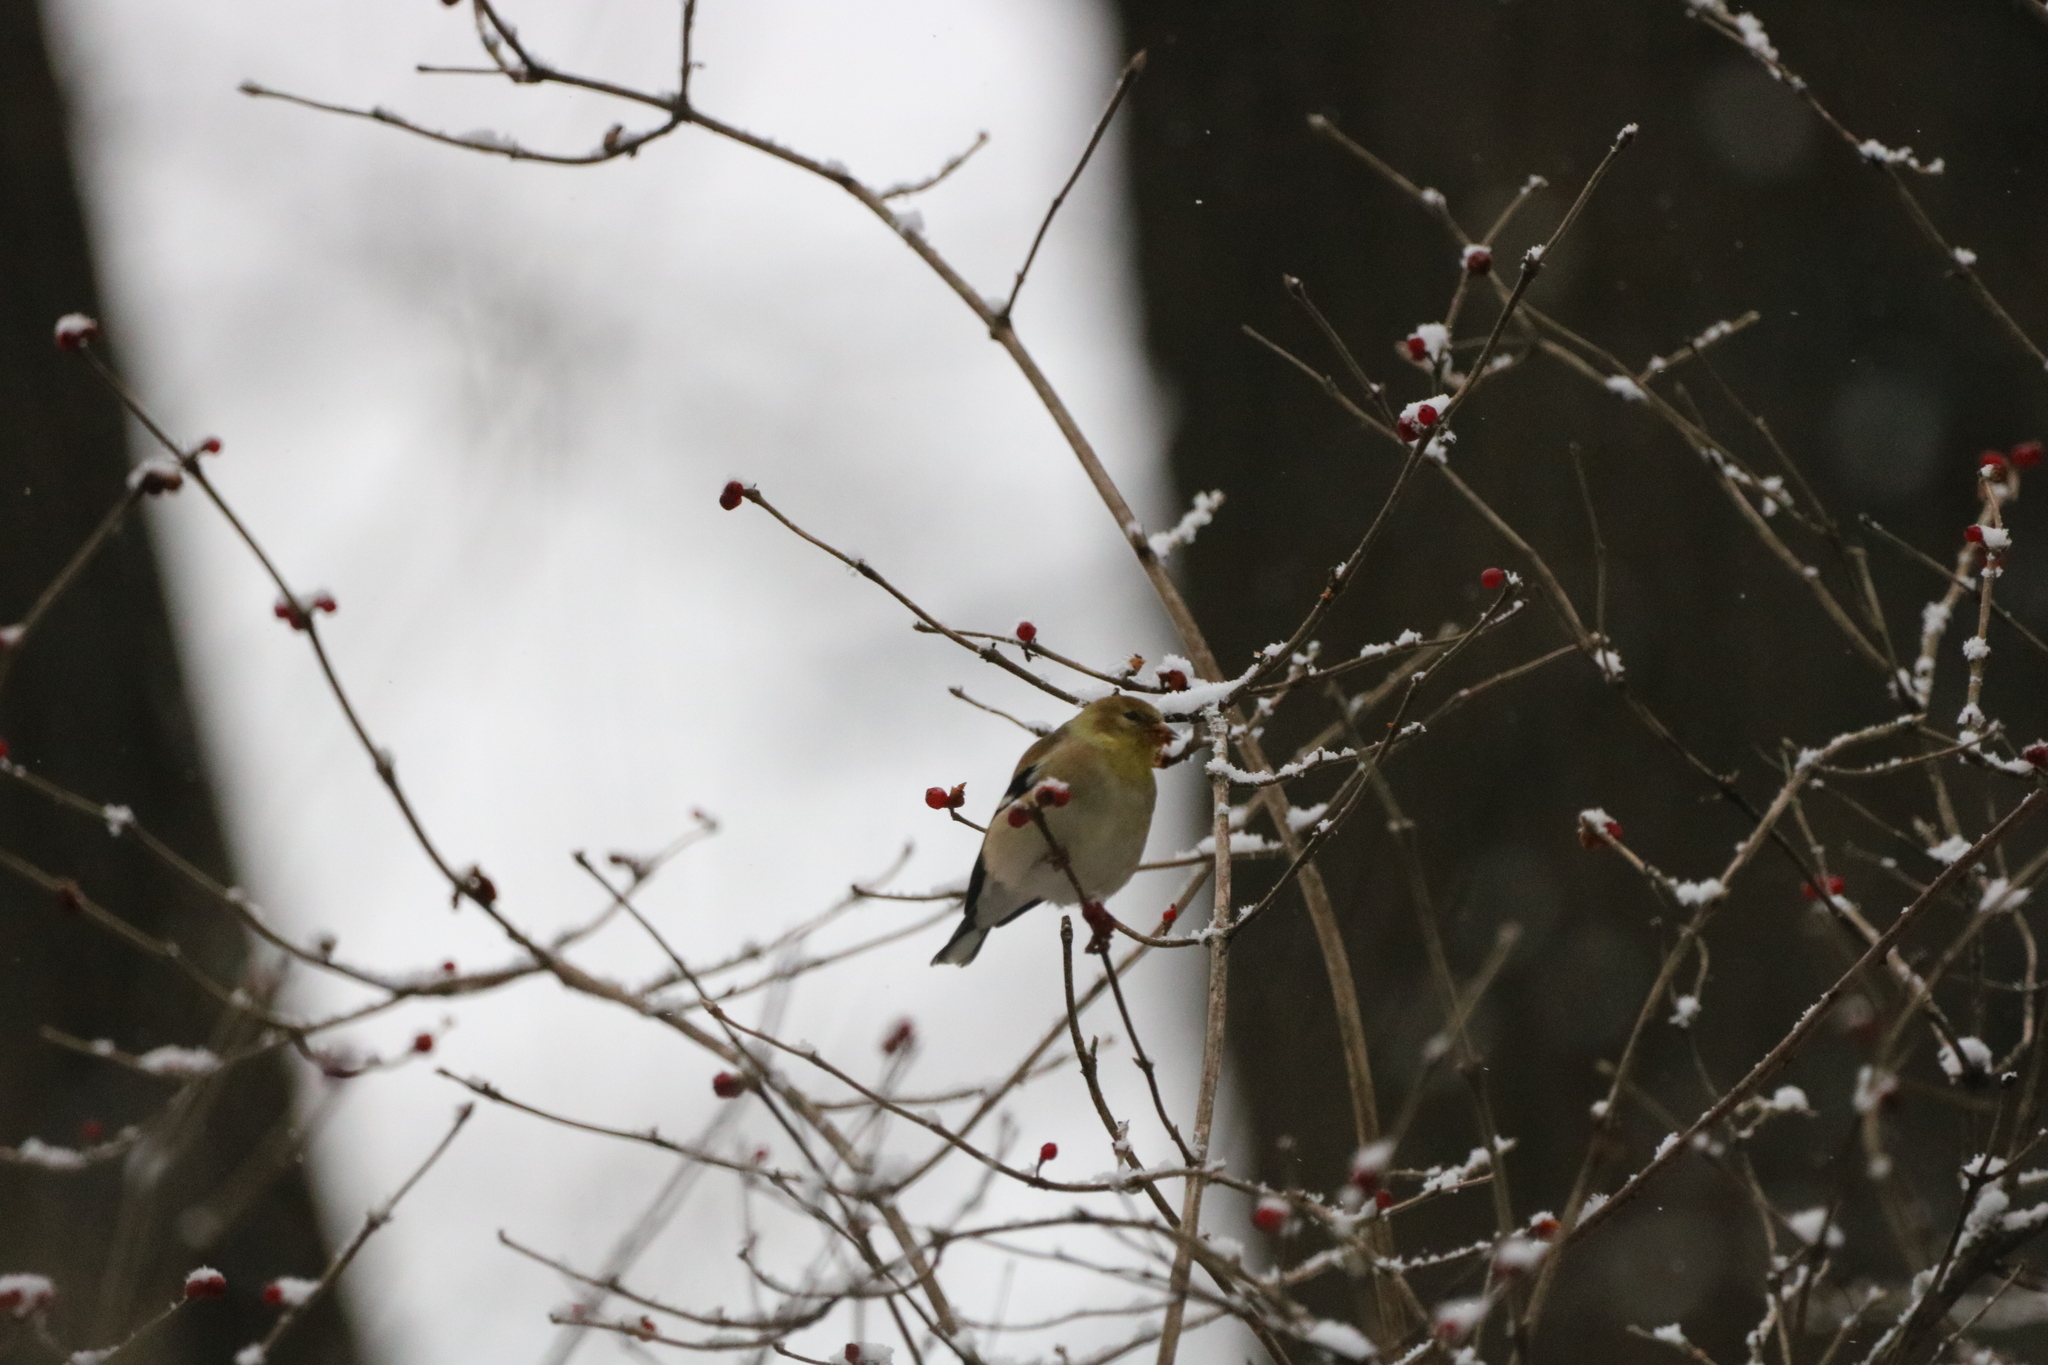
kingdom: Animalia
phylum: Chordata
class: Aves
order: Passeriformes
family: Fringillidae
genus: Spinus
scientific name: Spinus tristis
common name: American goldfinch
